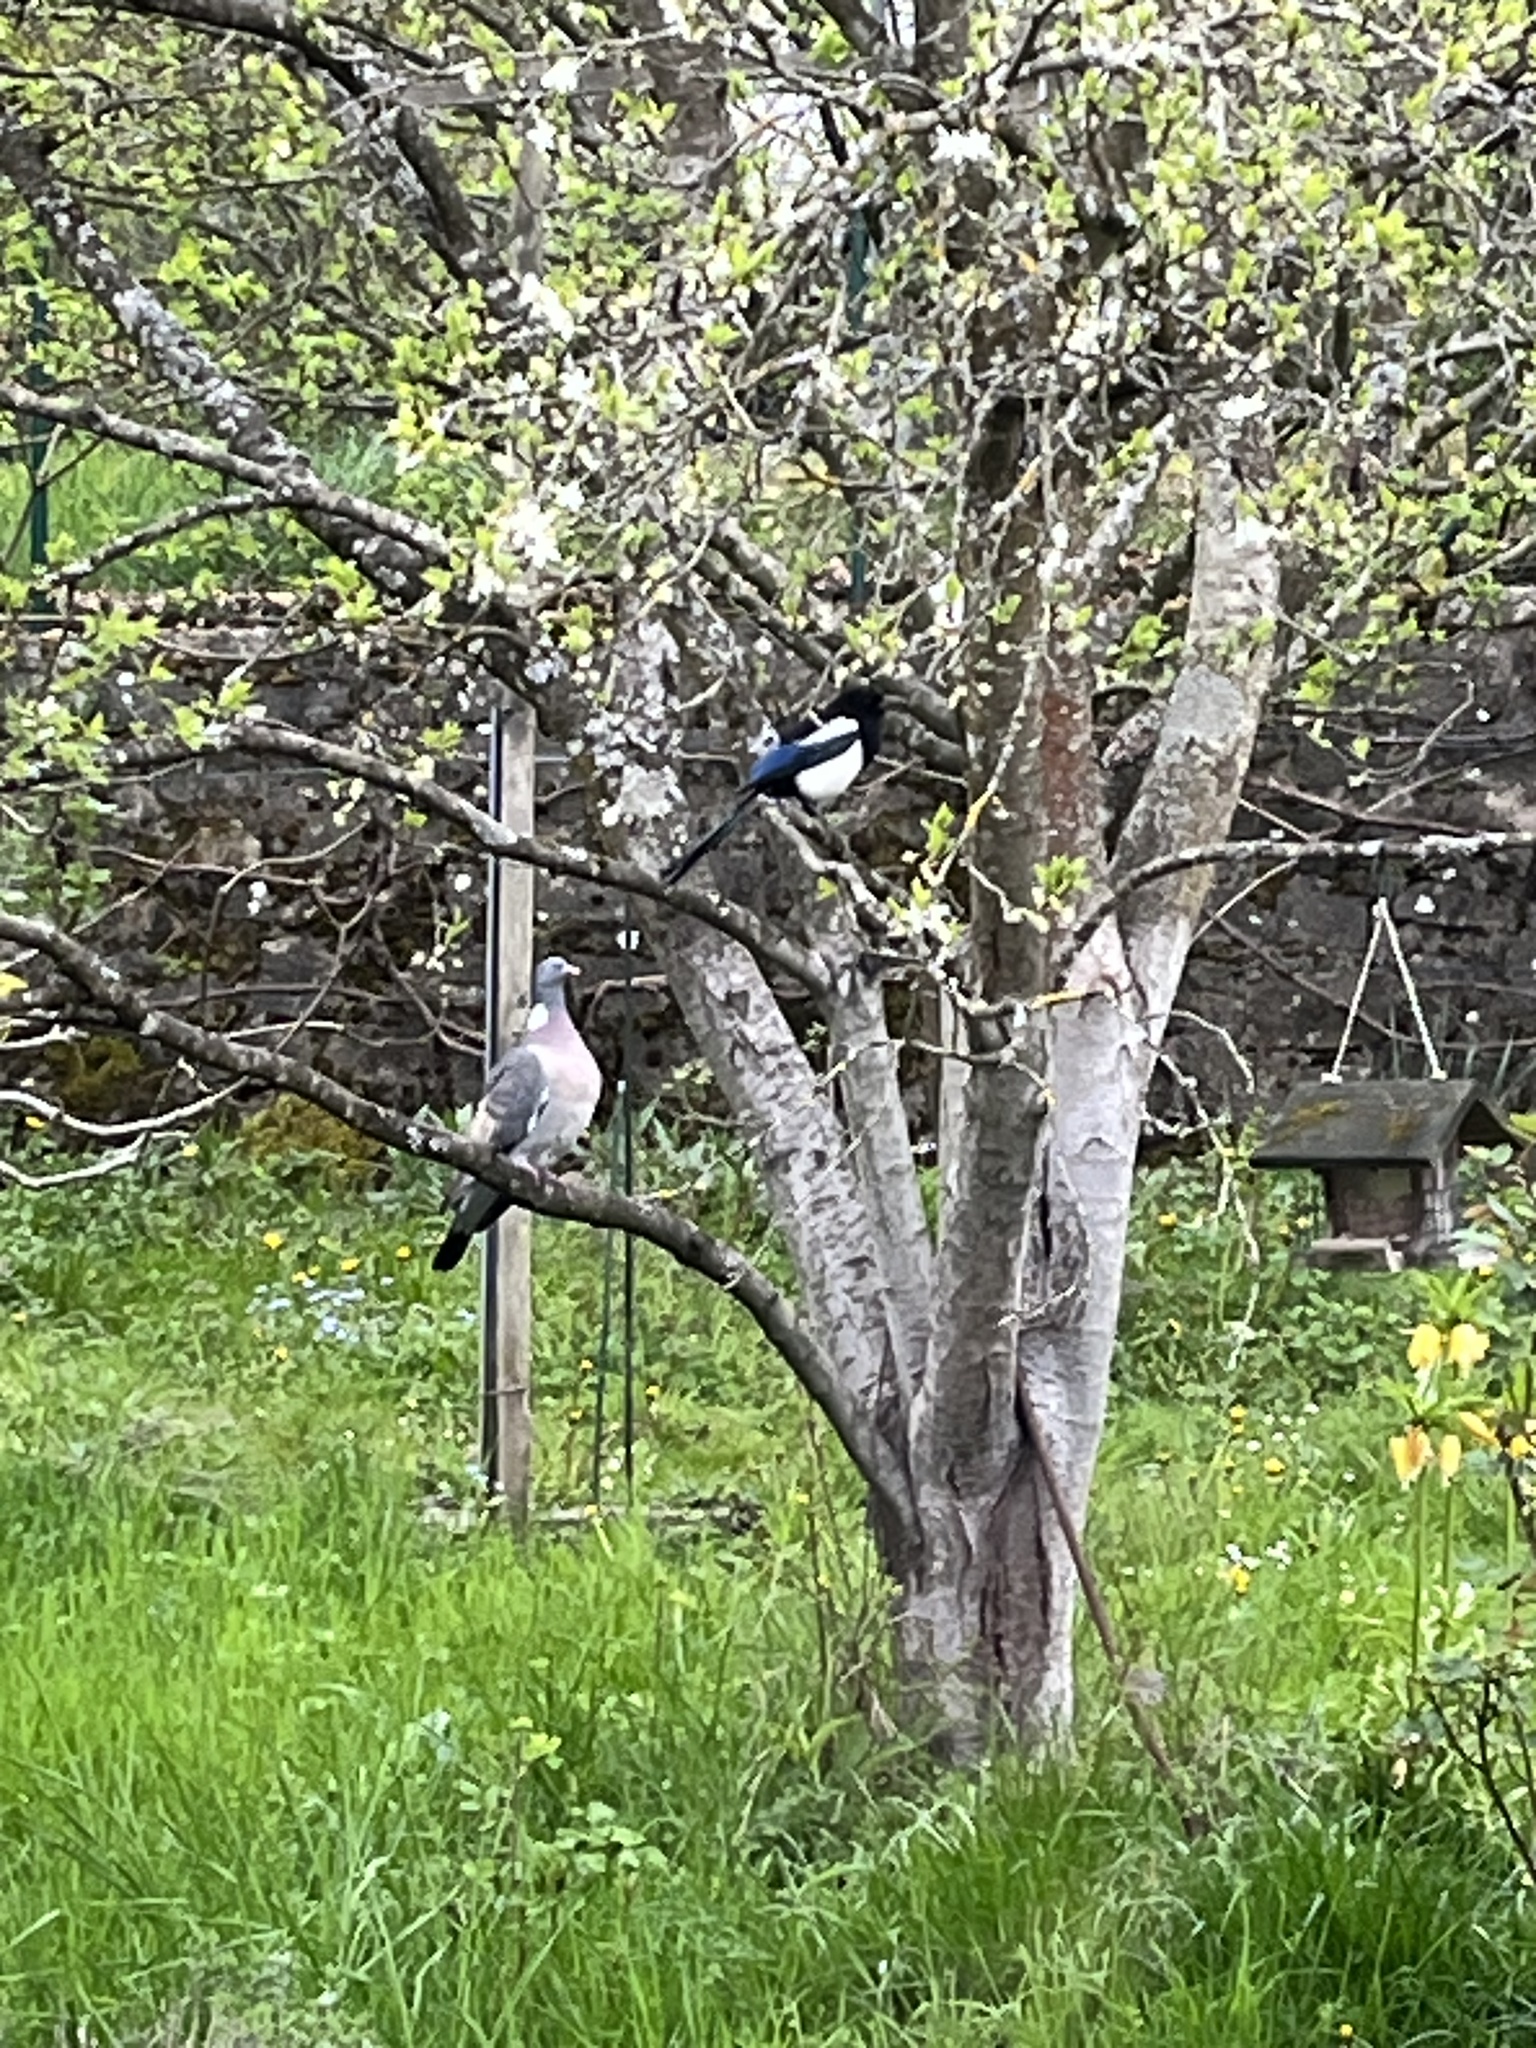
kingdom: Animalia
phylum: Chordata
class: Aves
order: Columbiformes
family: Columbidae
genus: Columba
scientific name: Columba palumbus
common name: Common wood pigeon
